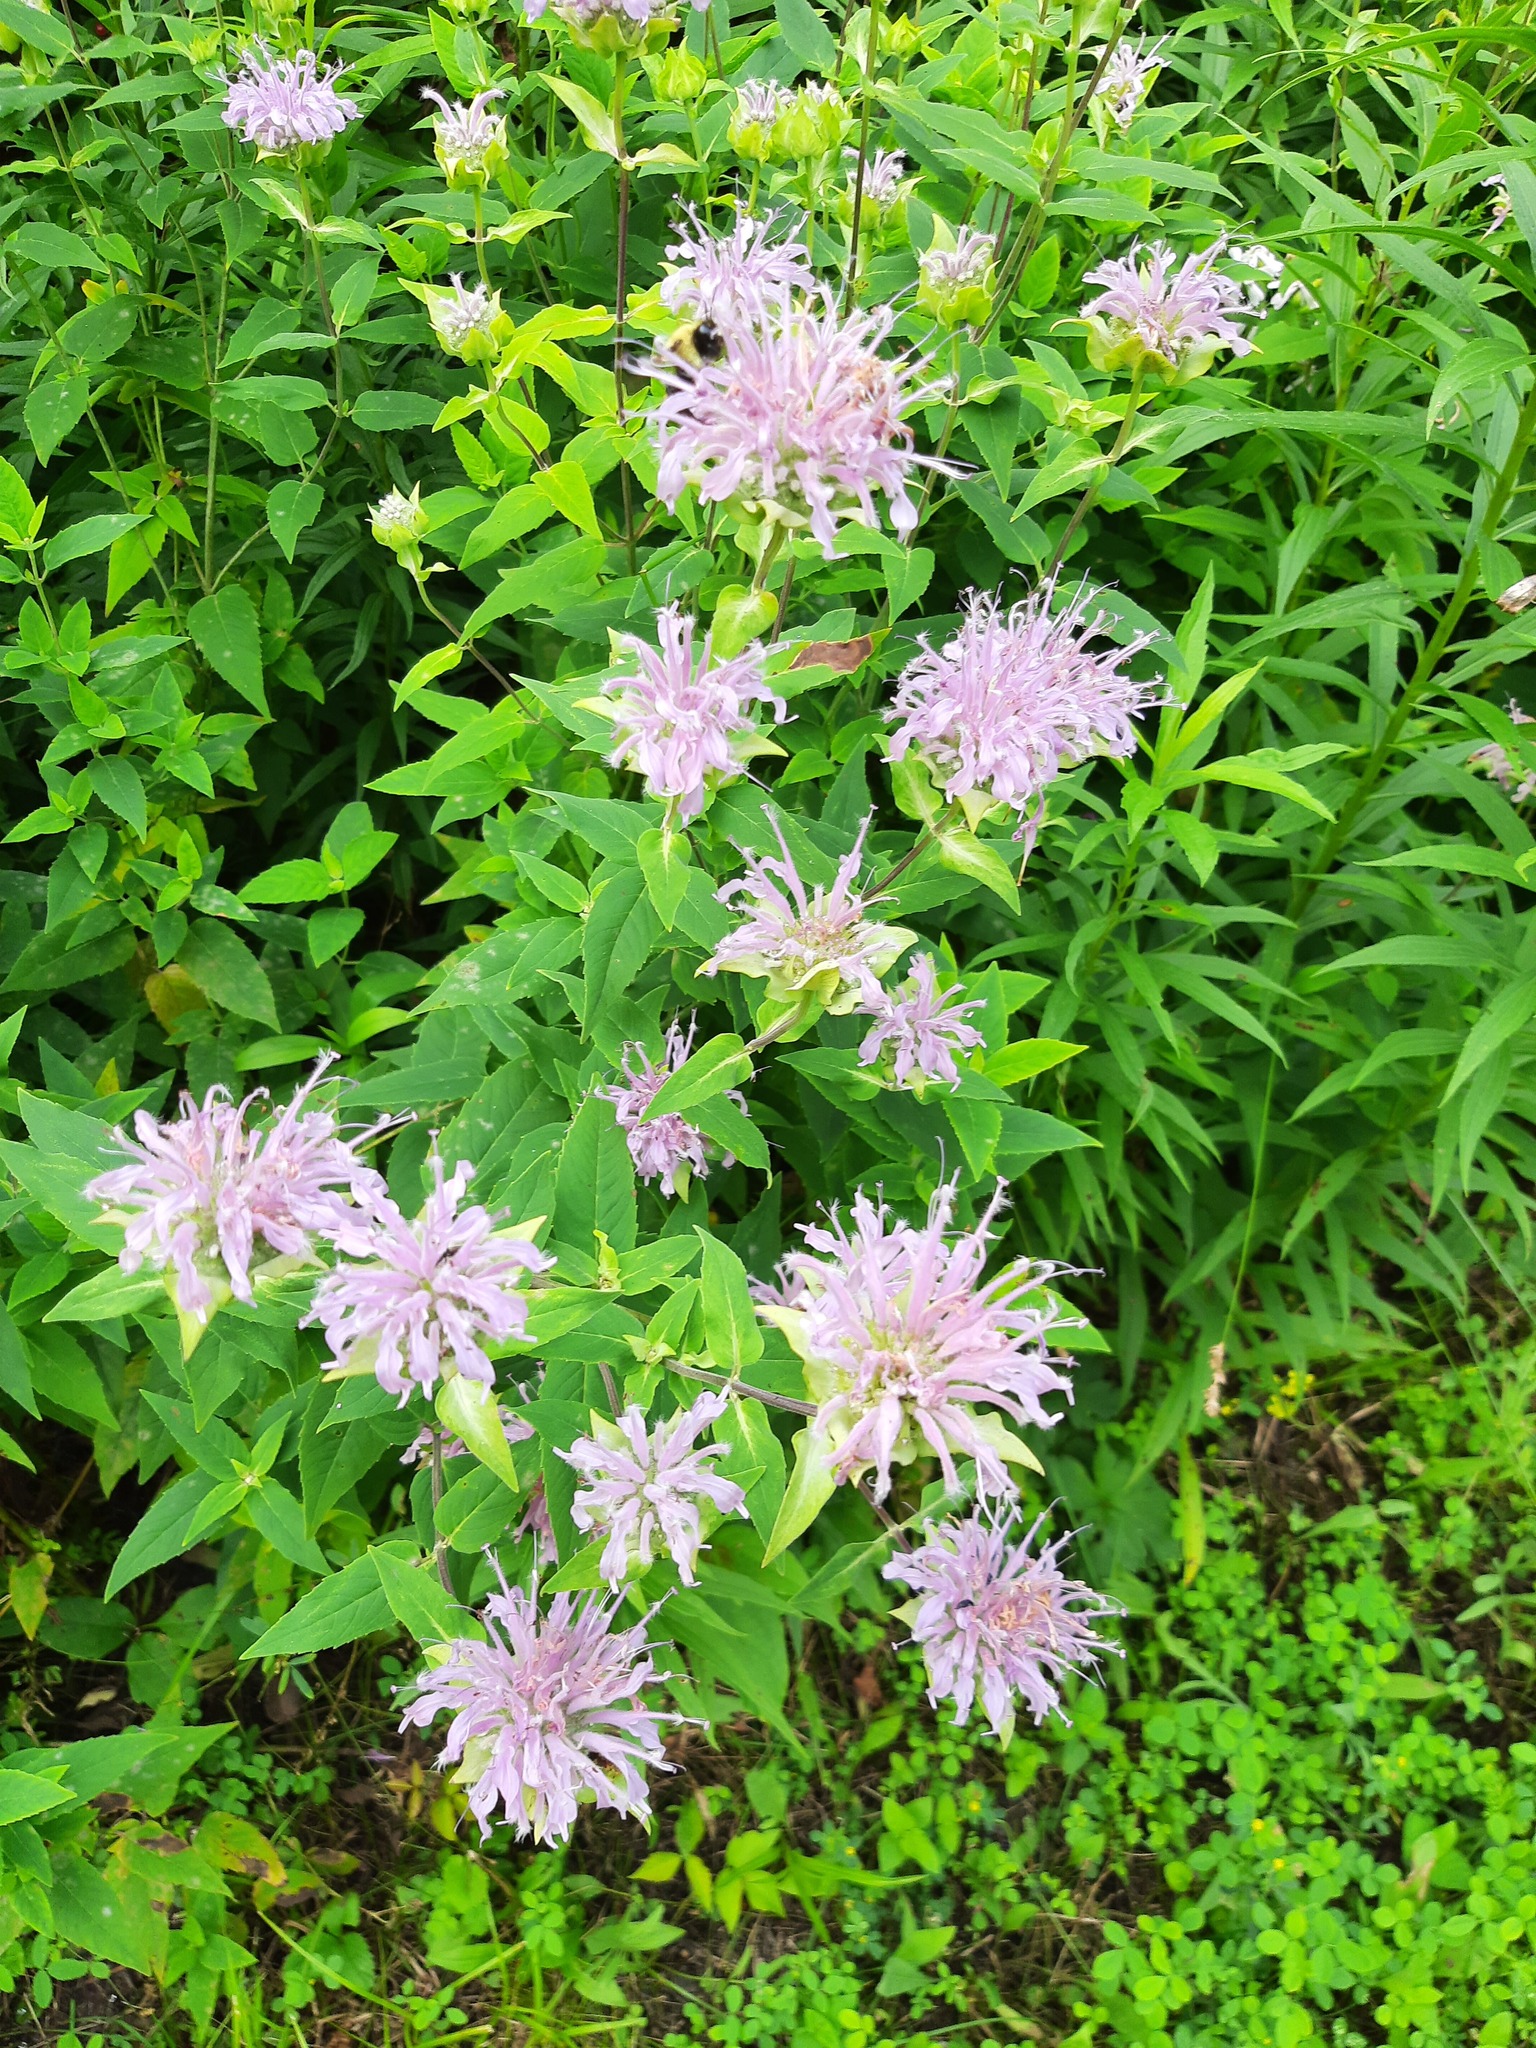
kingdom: Plantae
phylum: Tracheophyta
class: Magnoliopsida
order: Lamiales
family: Lamiaceae
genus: Monarda
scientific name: Monarda fistulosa
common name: Purple beebalm
